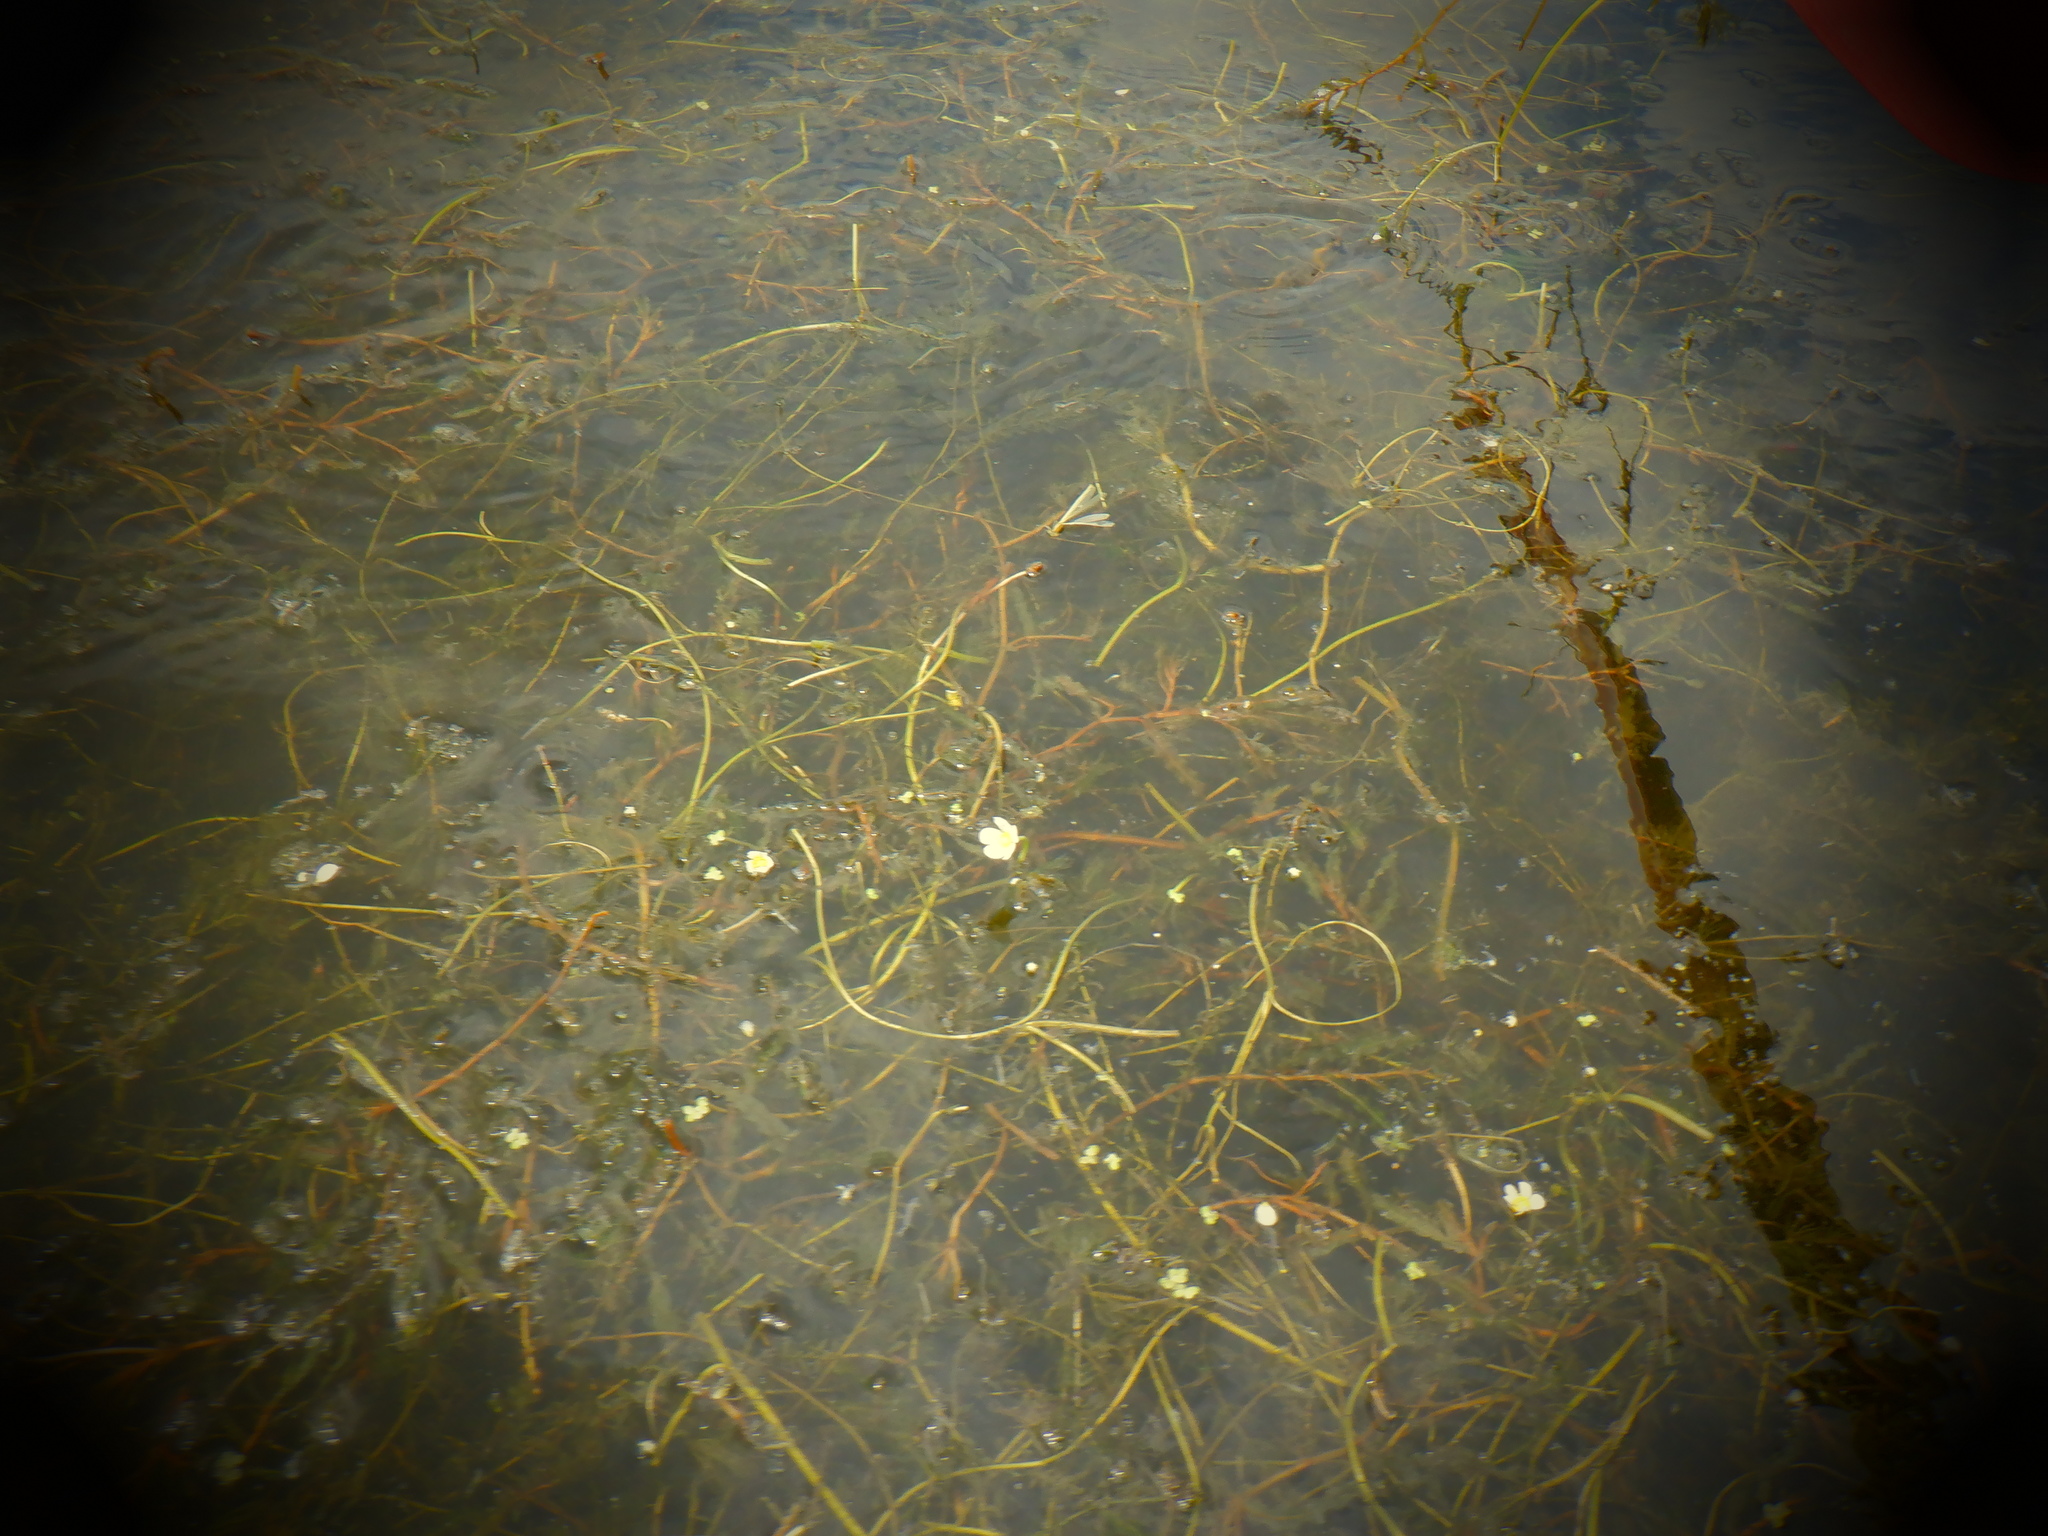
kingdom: Plantae
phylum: Tracheophyta
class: Magnoliopsida
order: Ranunculales
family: Ranunculaceae
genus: Ranunculus
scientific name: Ranunculus aquatilis
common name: Common water-crowfoot
